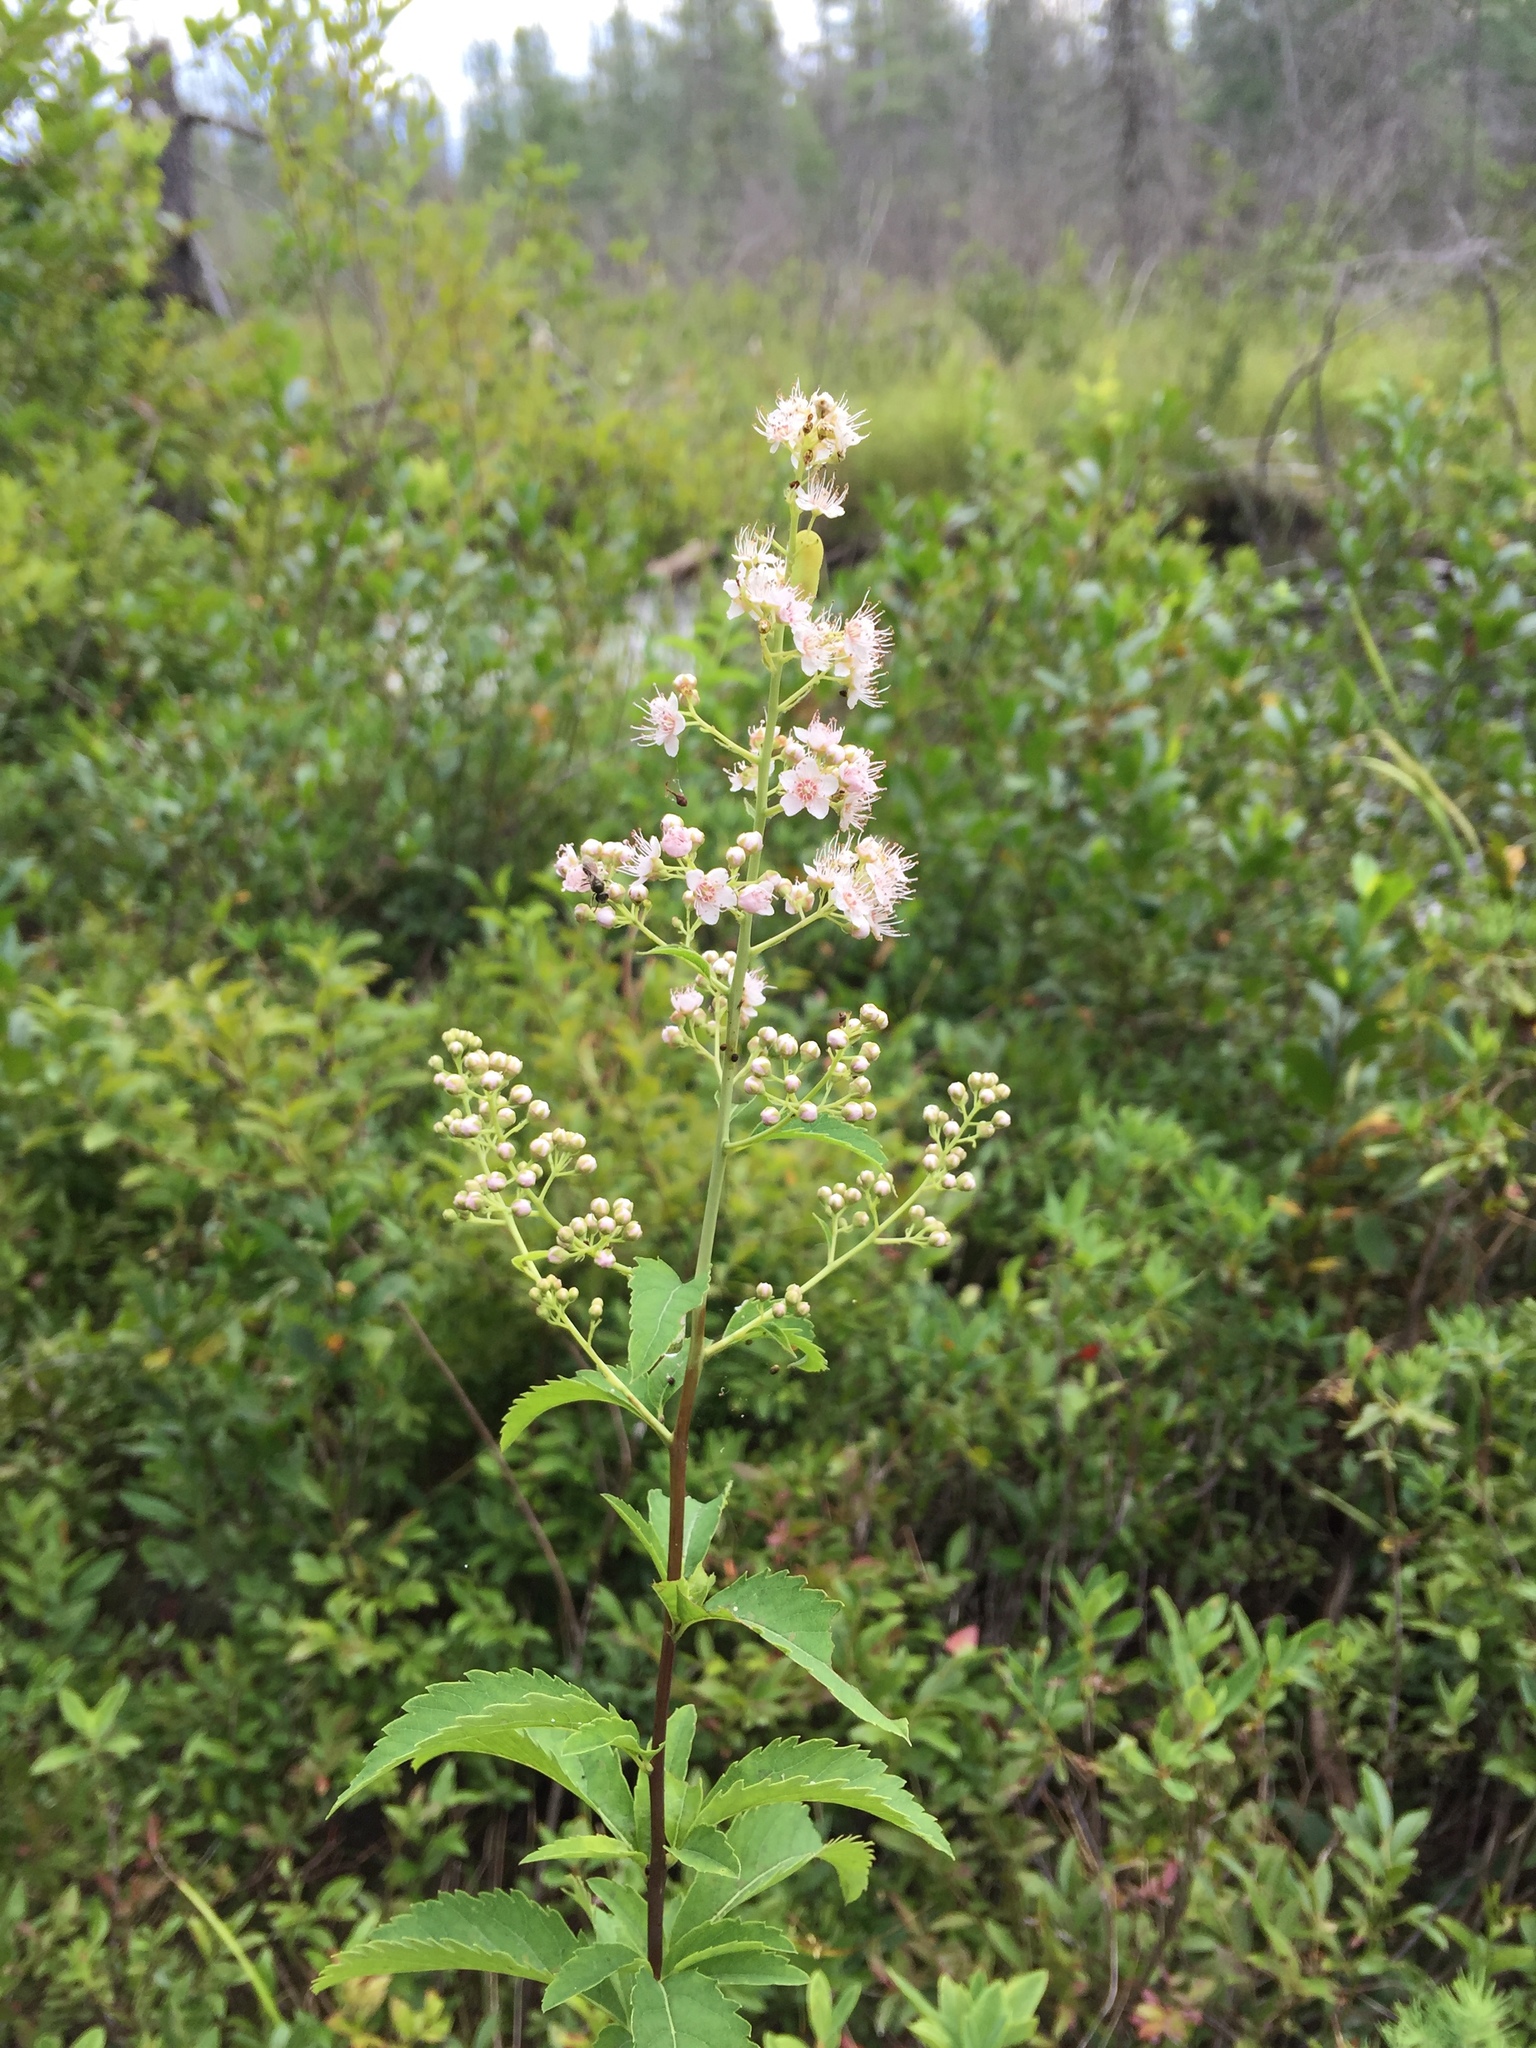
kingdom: Plantae
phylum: Tracheophyta
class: Magnoliopsida
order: Rosales
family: Rosaceae
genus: Spiraea
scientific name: Spiraea alba
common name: Pale bridewort
